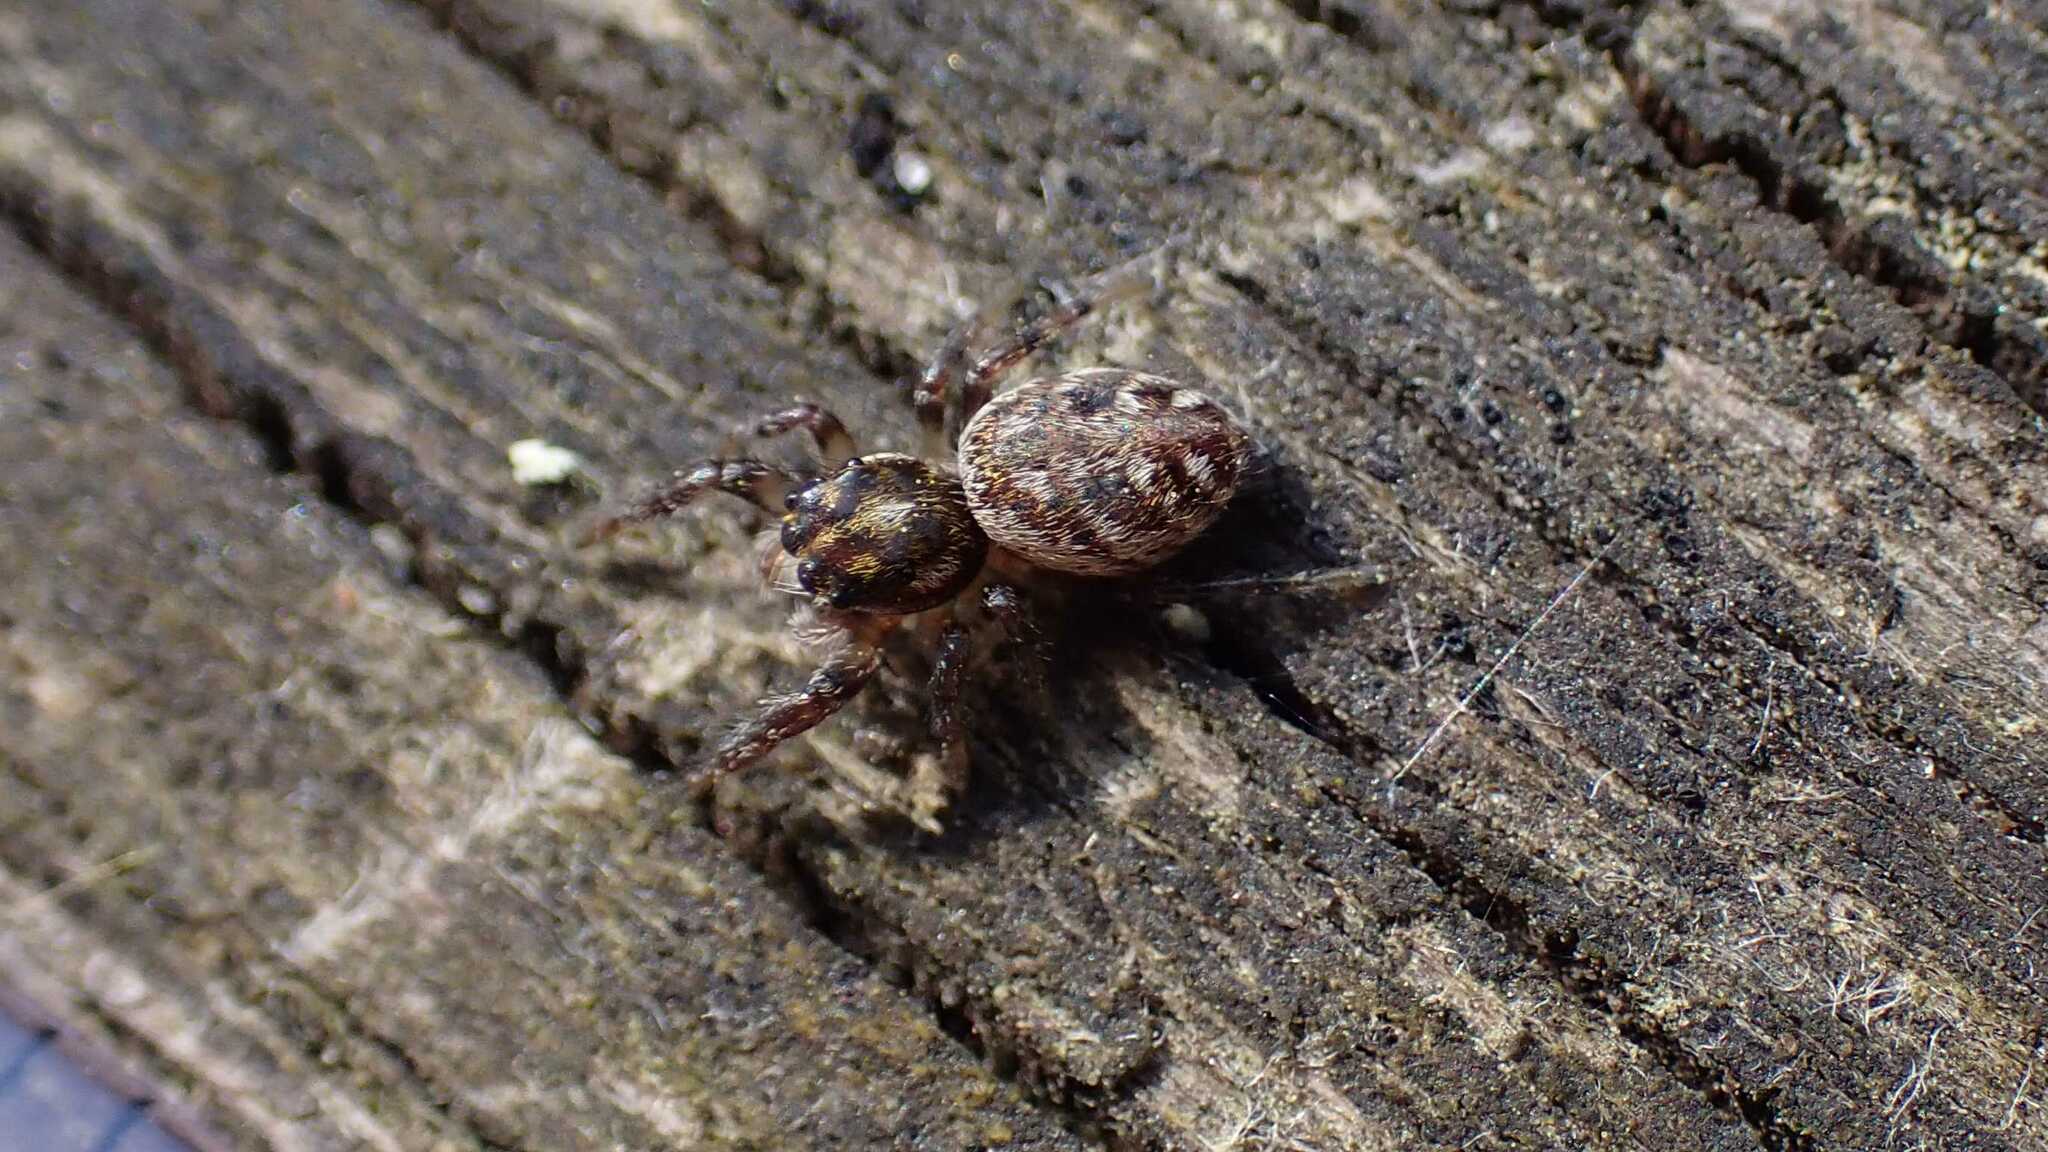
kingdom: Animalia
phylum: Arthropoda
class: Arachnida
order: Araneae
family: Salticidae
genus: Macaroeris
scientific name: Macaroeris nidicolens
